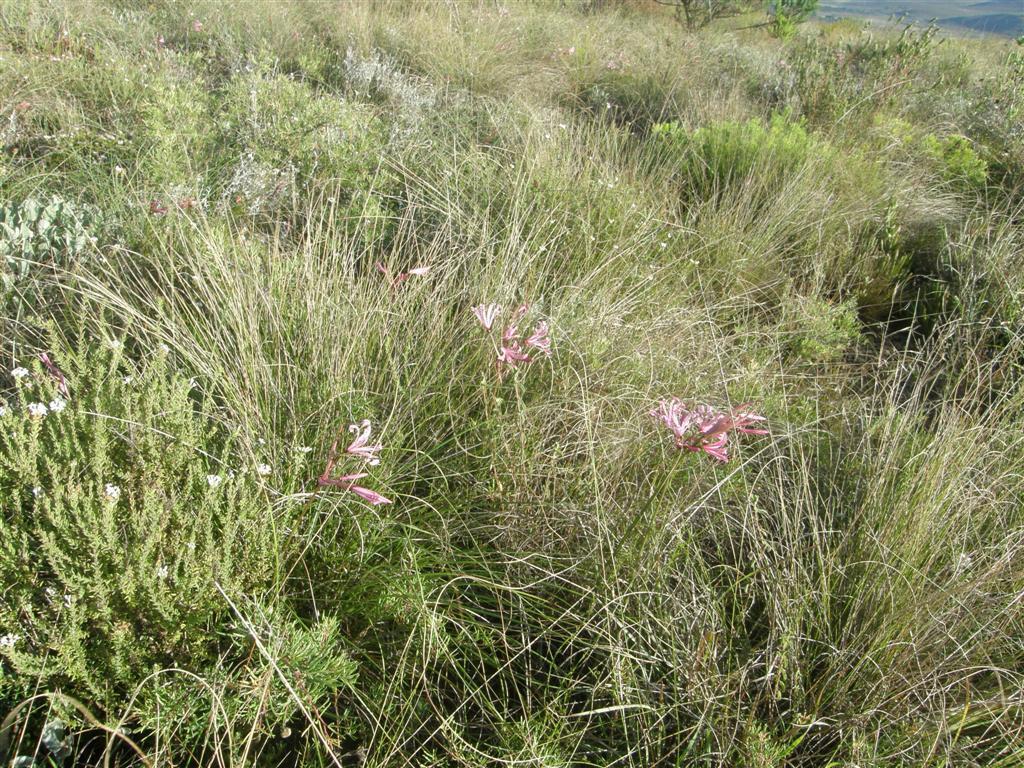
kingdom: Plantae
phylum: Tracheophyta
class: Liliopsida
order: Asparagales
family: Amaryllidaceae
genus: Nerine
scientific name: Nerine humilis
